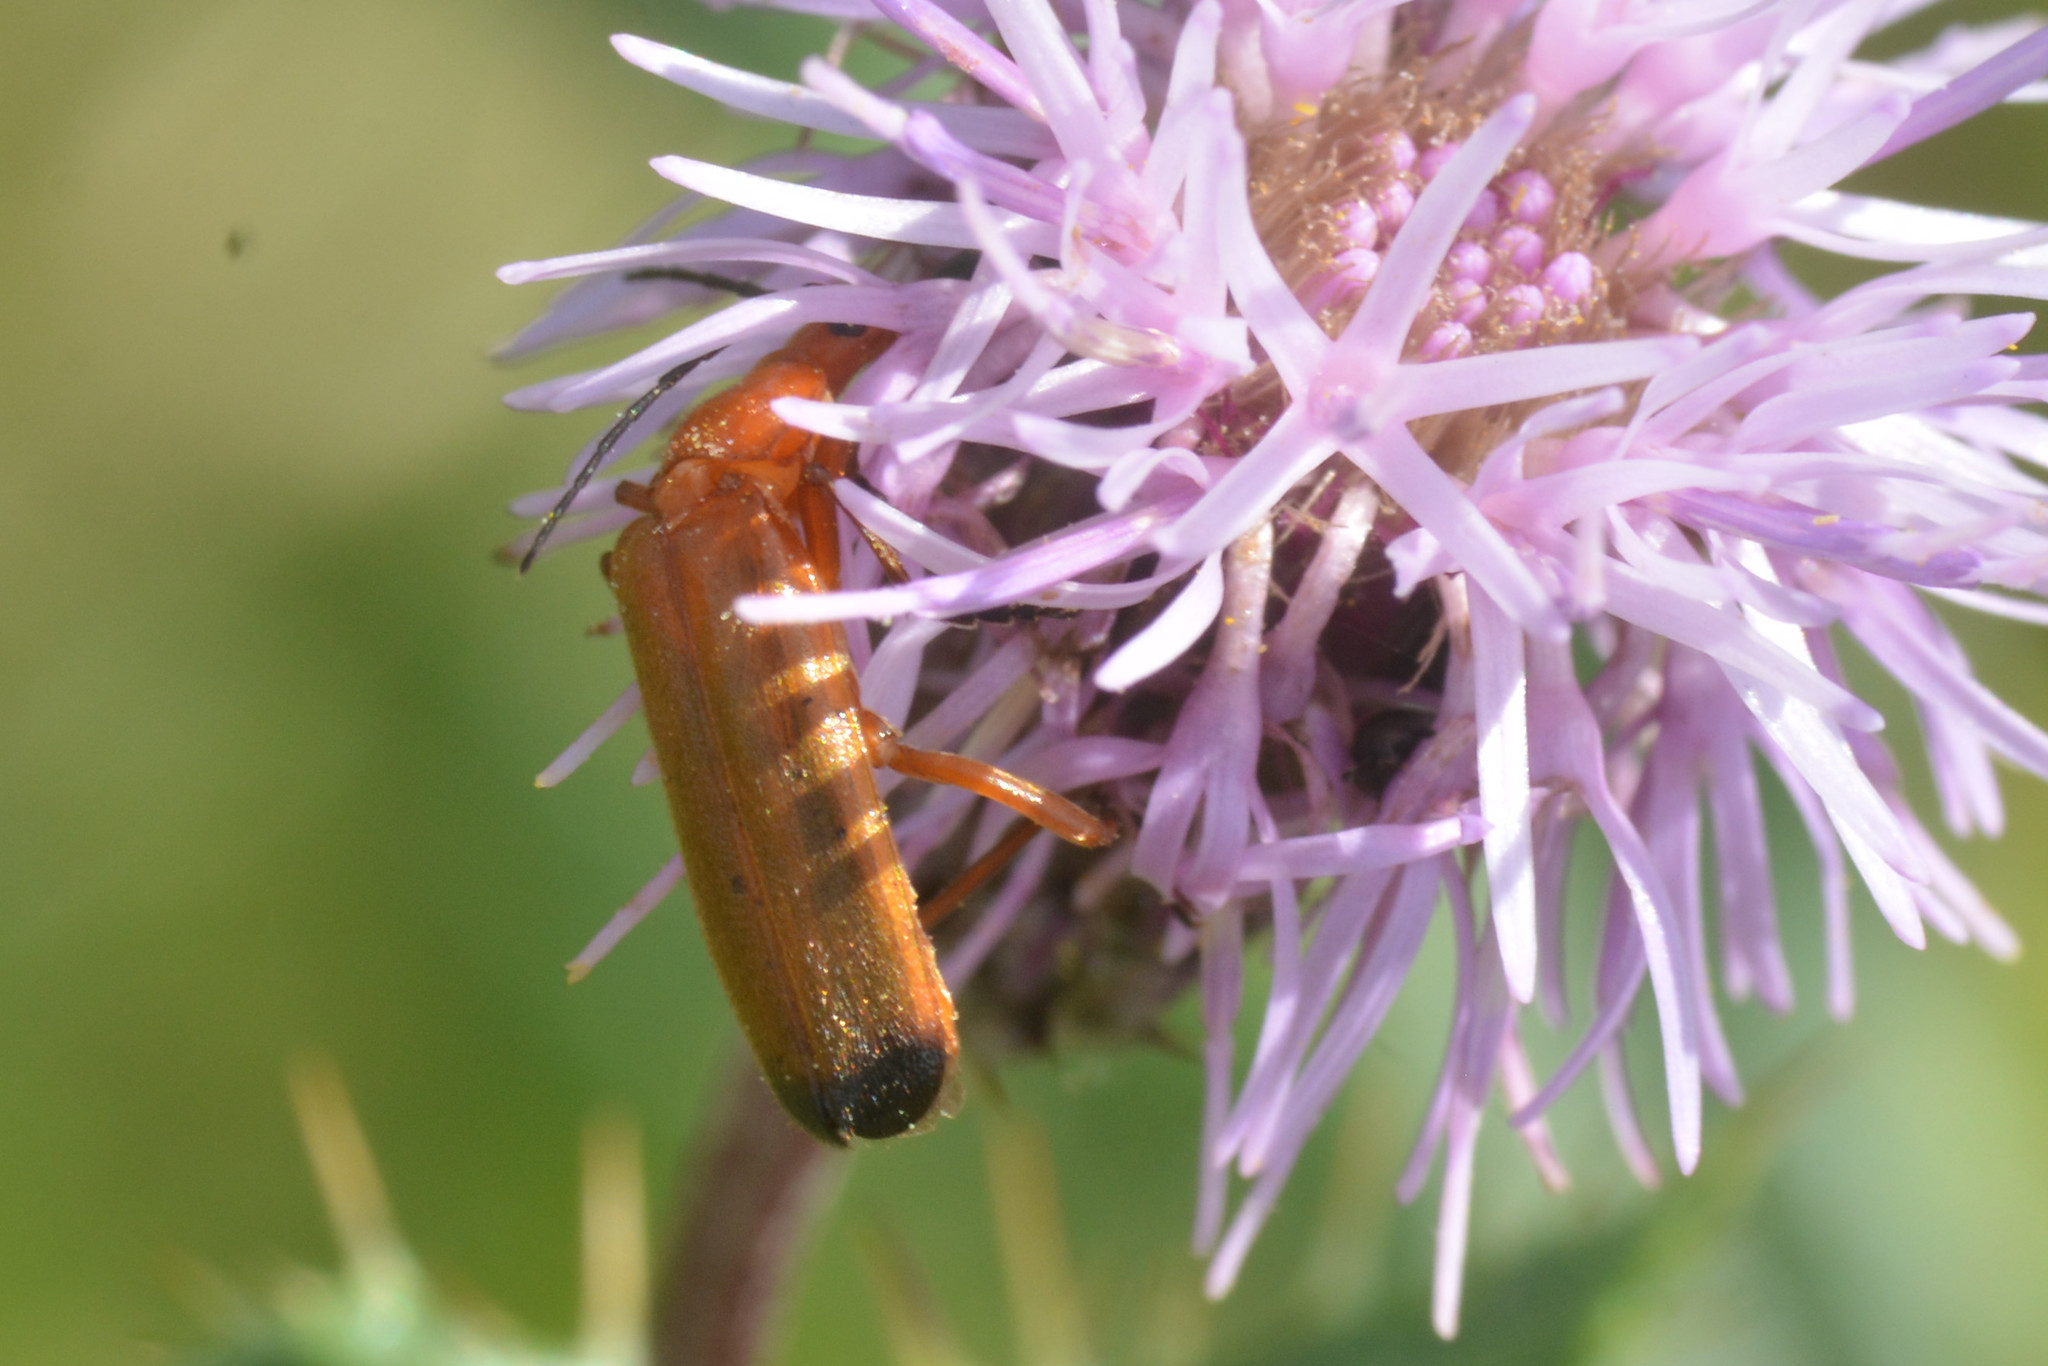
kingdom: Animalia
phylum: Arthropoda
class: Insecta
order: Coleoptera
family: Cantharidae
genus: Rhagonycha
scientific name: Rhagonycha fulva
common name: Common red soldier beetle
